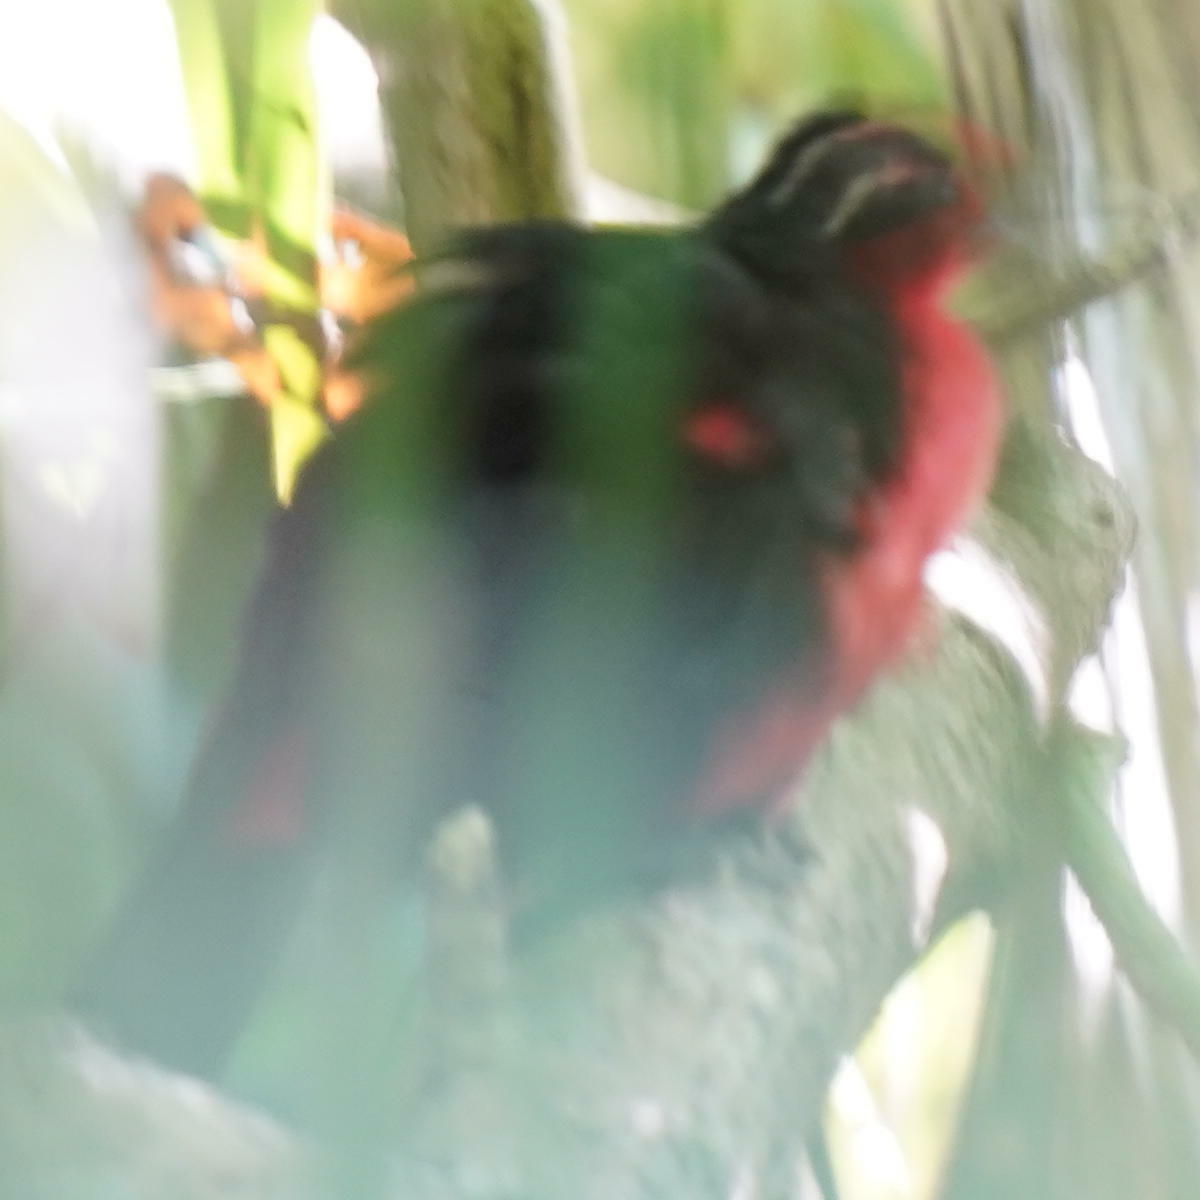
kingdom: Animalia
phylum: Chordata
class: Aves
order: Passeriformes
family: Rhodinocichlidae
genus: Rhodinocichla
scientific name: Rhodinocichla rosea
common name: Rosy thrush-tanager
